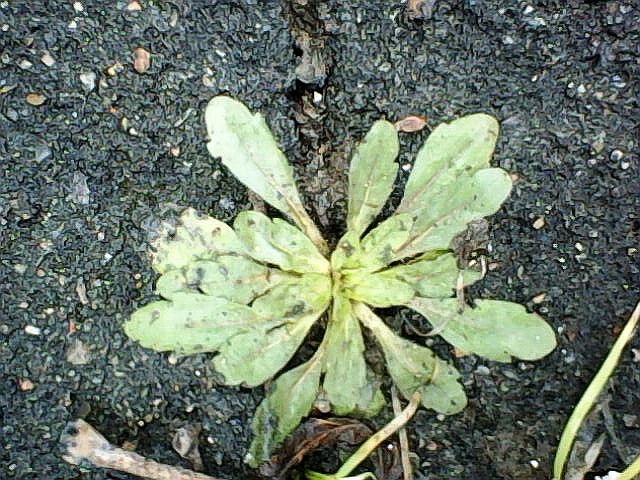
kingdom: Plantae
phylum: Tracheophyta
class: Magnoliopsida
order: Asterales
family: Asteraceae
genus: Erigeron
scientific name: Erigeron canadensis
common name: Canadian fleabane
